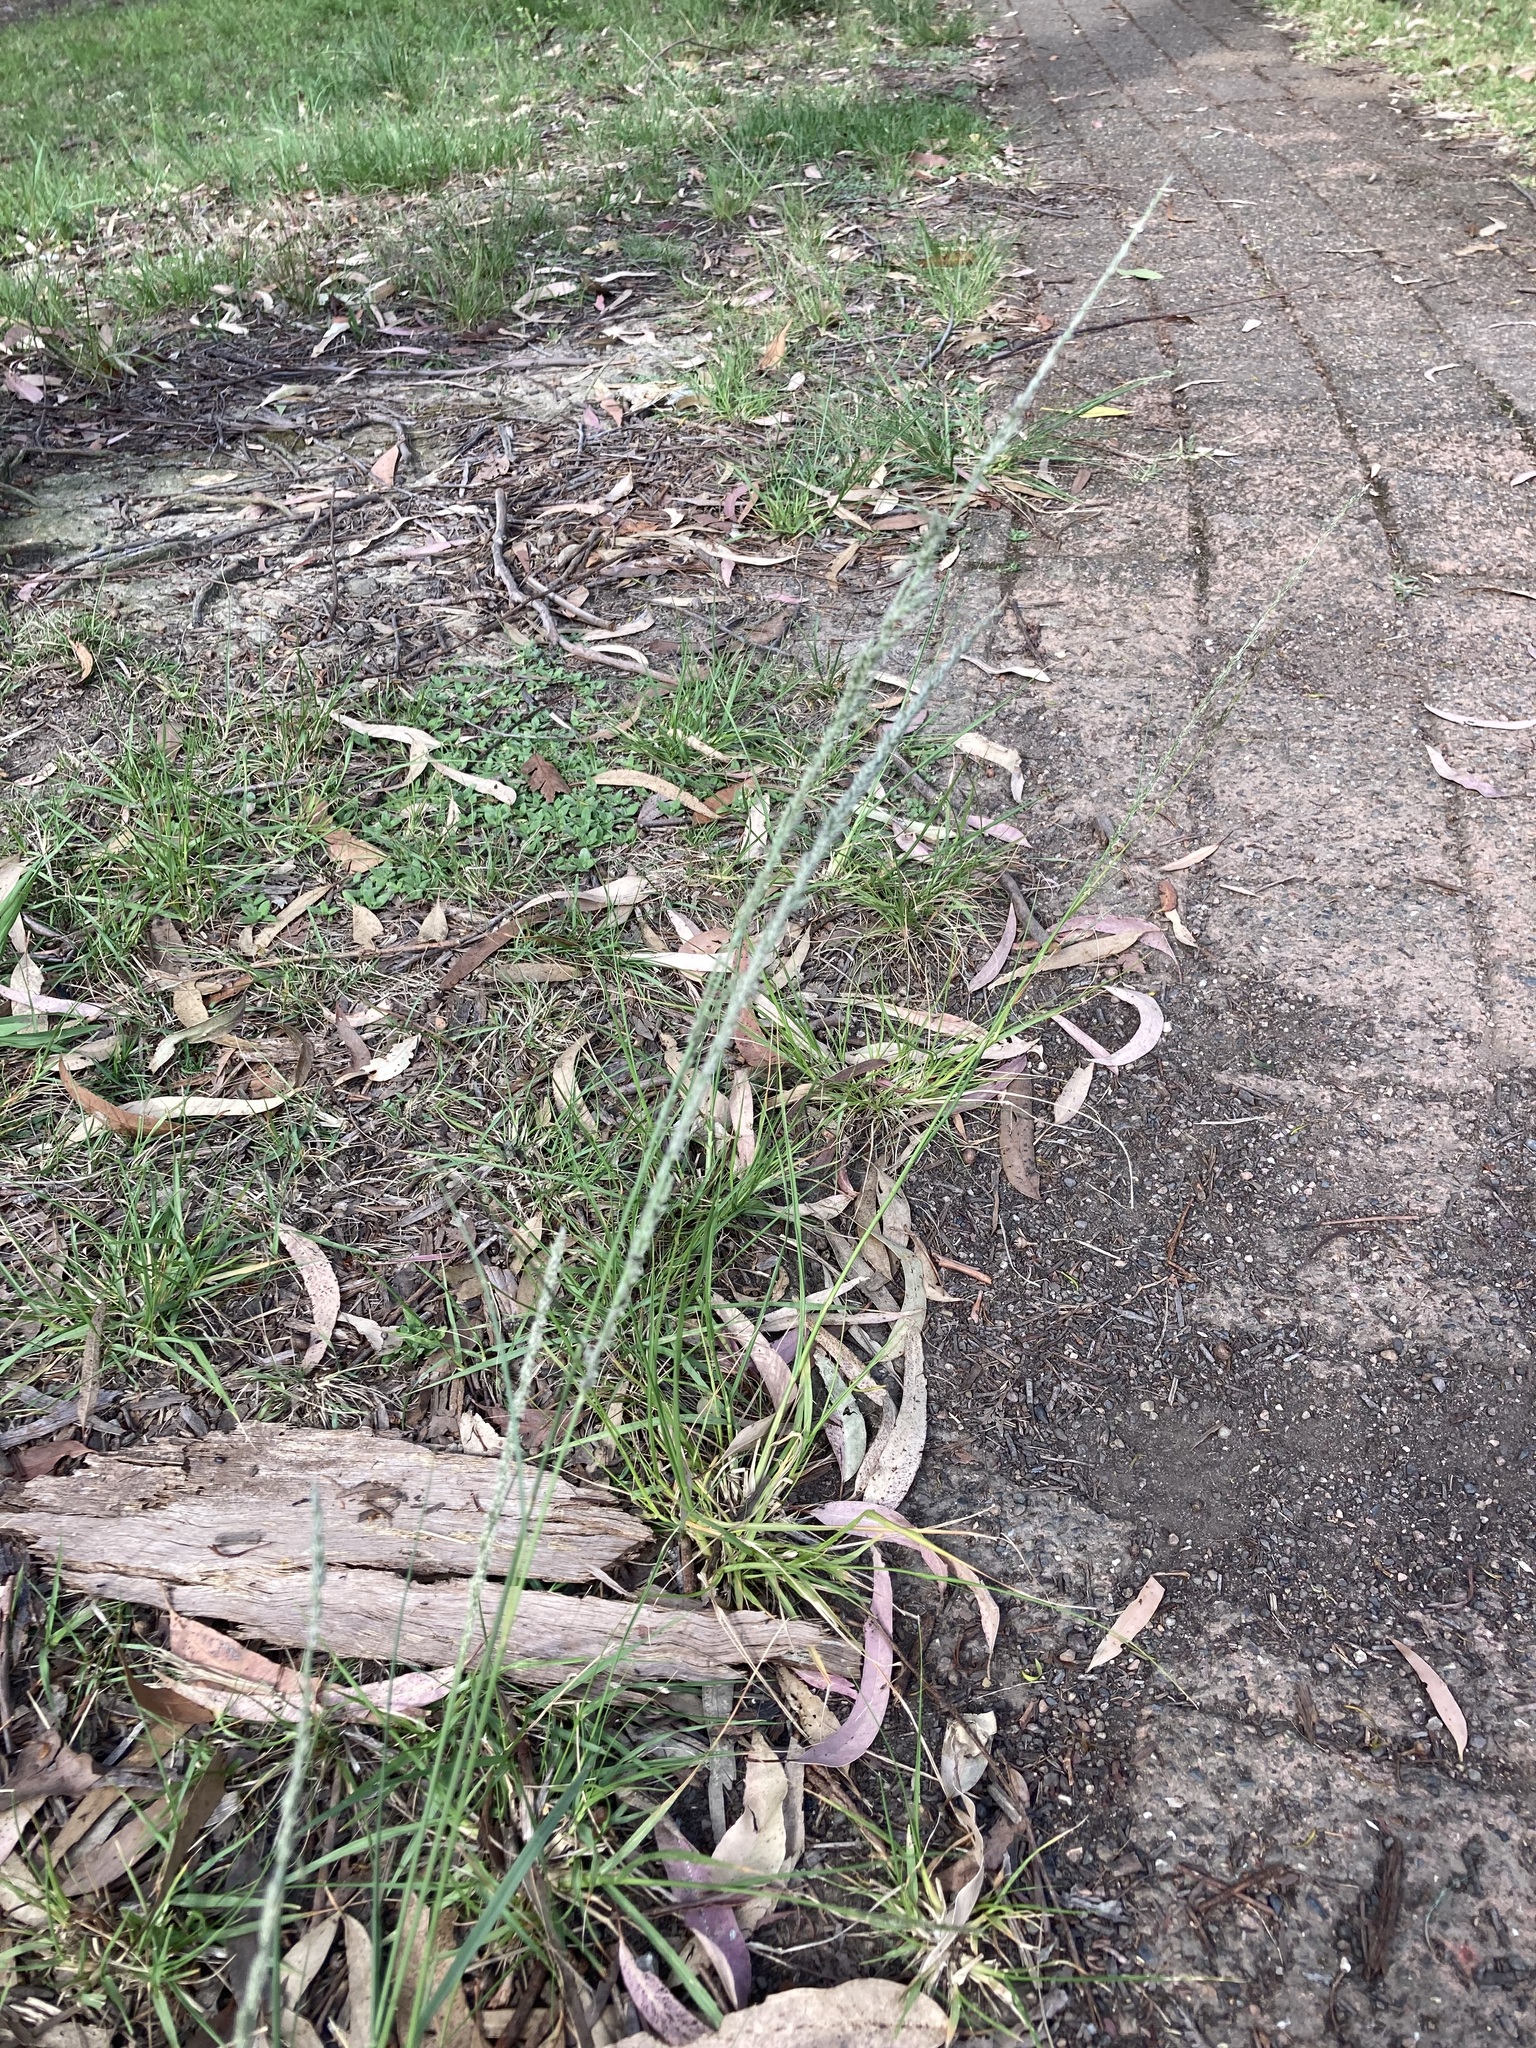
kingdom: Plantae
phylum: Tracheophyta
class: Liliopsida
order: Poales
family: Poaceae
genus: Sporobolus
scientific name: Sporobolus
